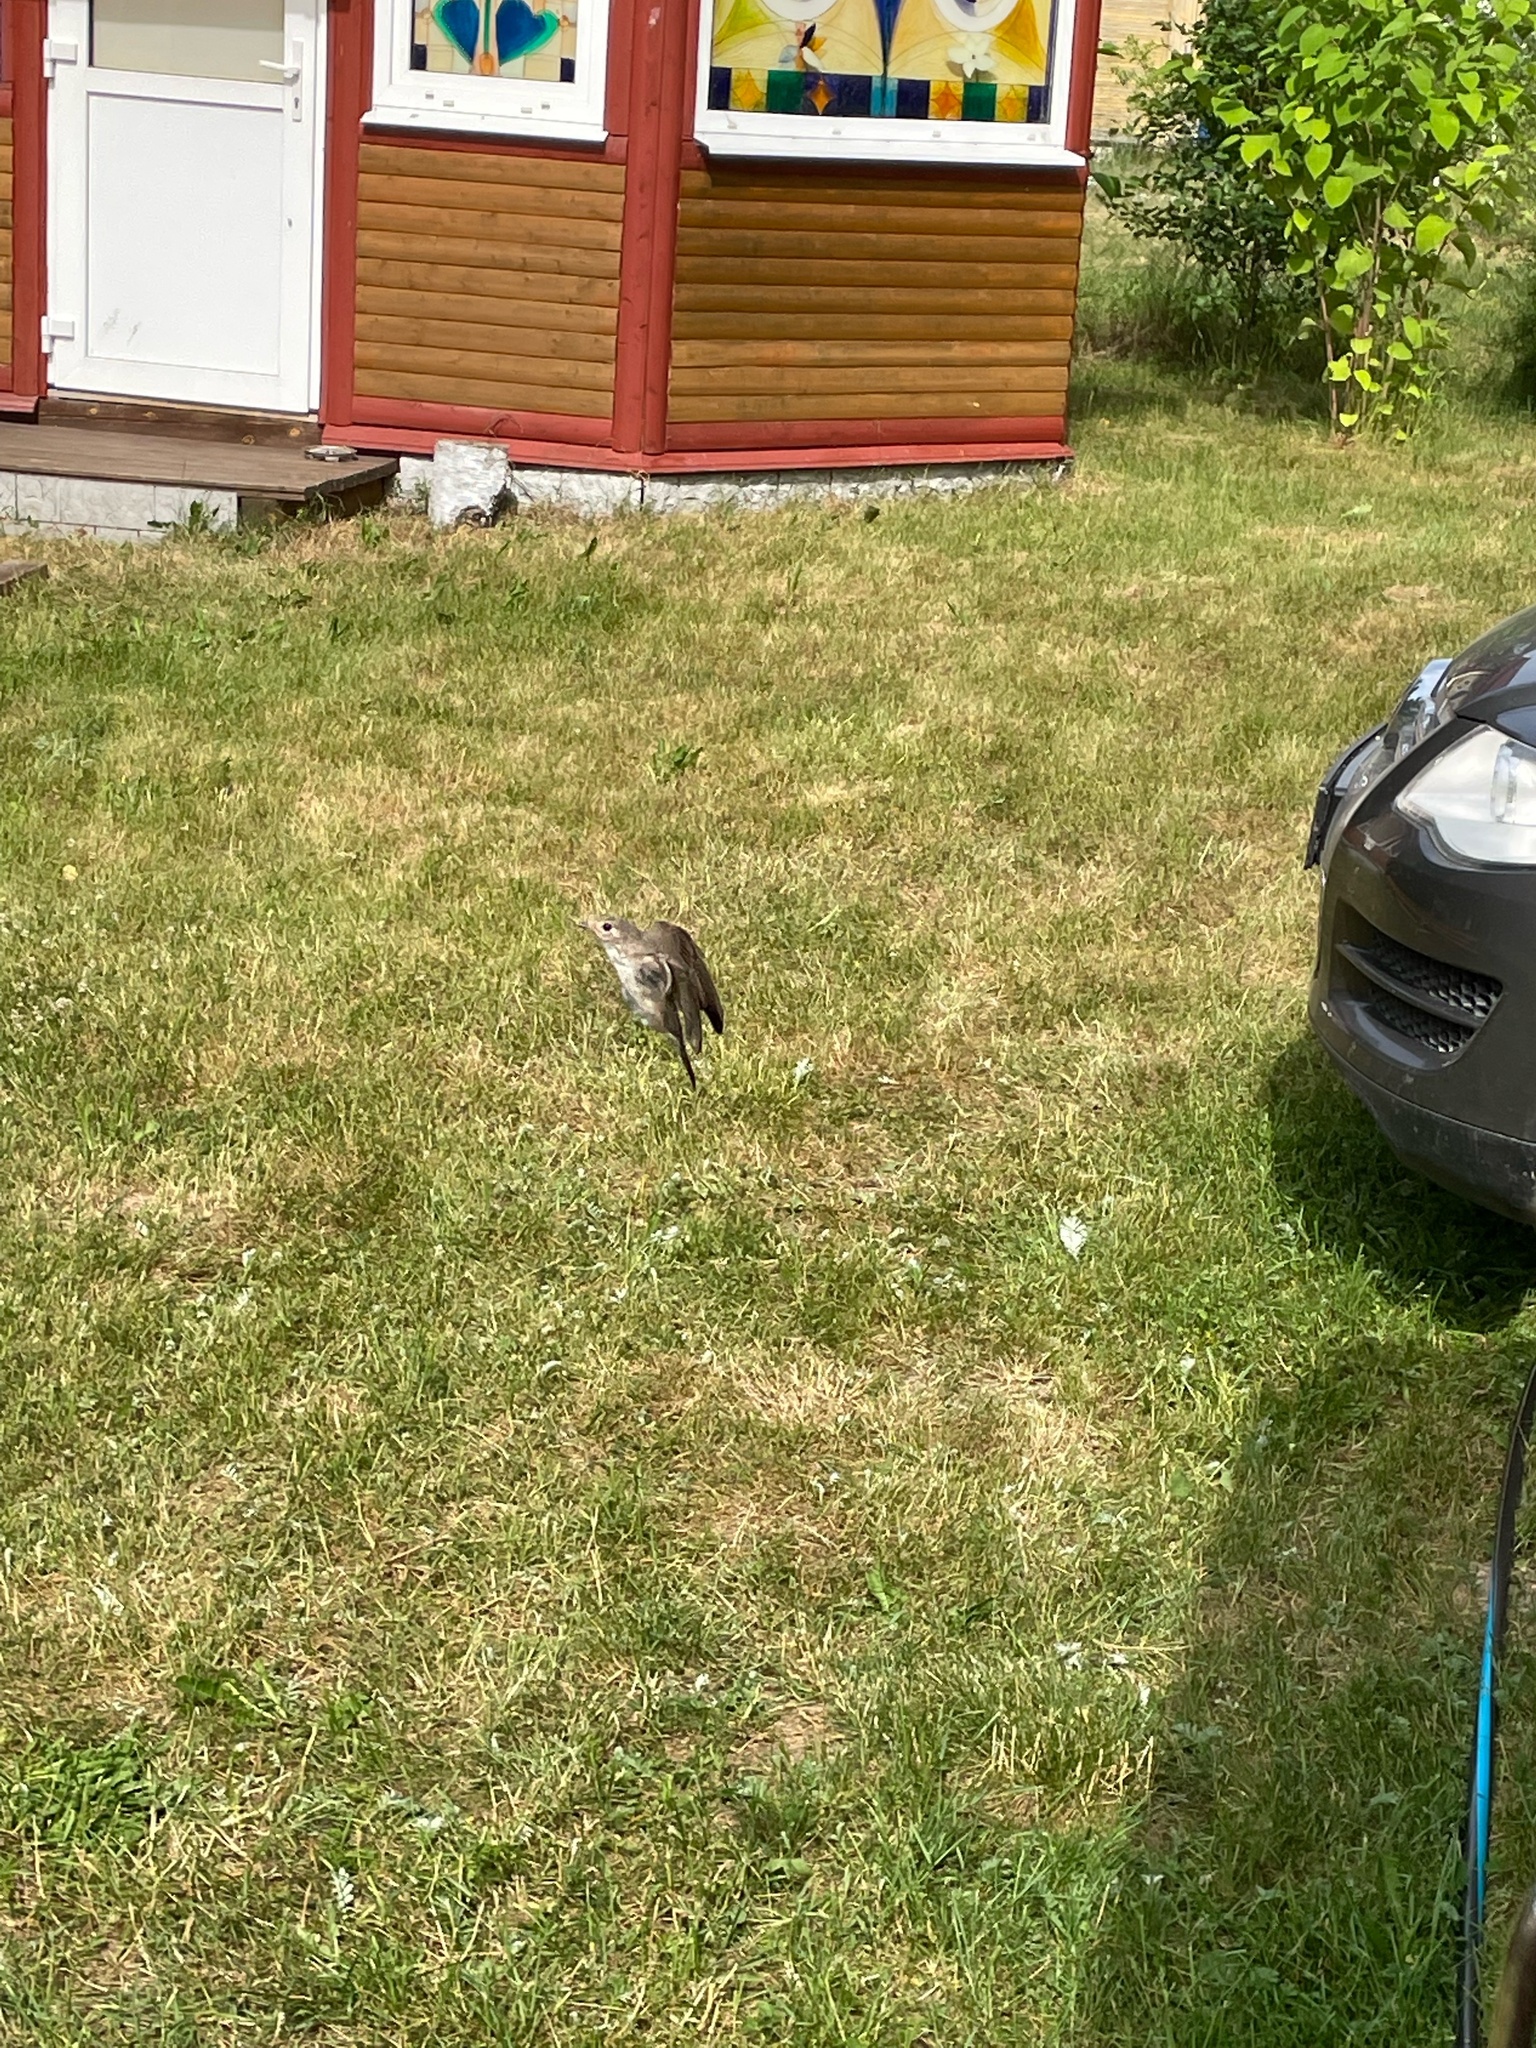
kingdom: Animalia
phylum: Chordata
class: Aves
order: Passeriformes
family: Muscicapidae
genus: Muscicapa
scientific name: Muscicapa striata
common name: Spotted flycatcher
